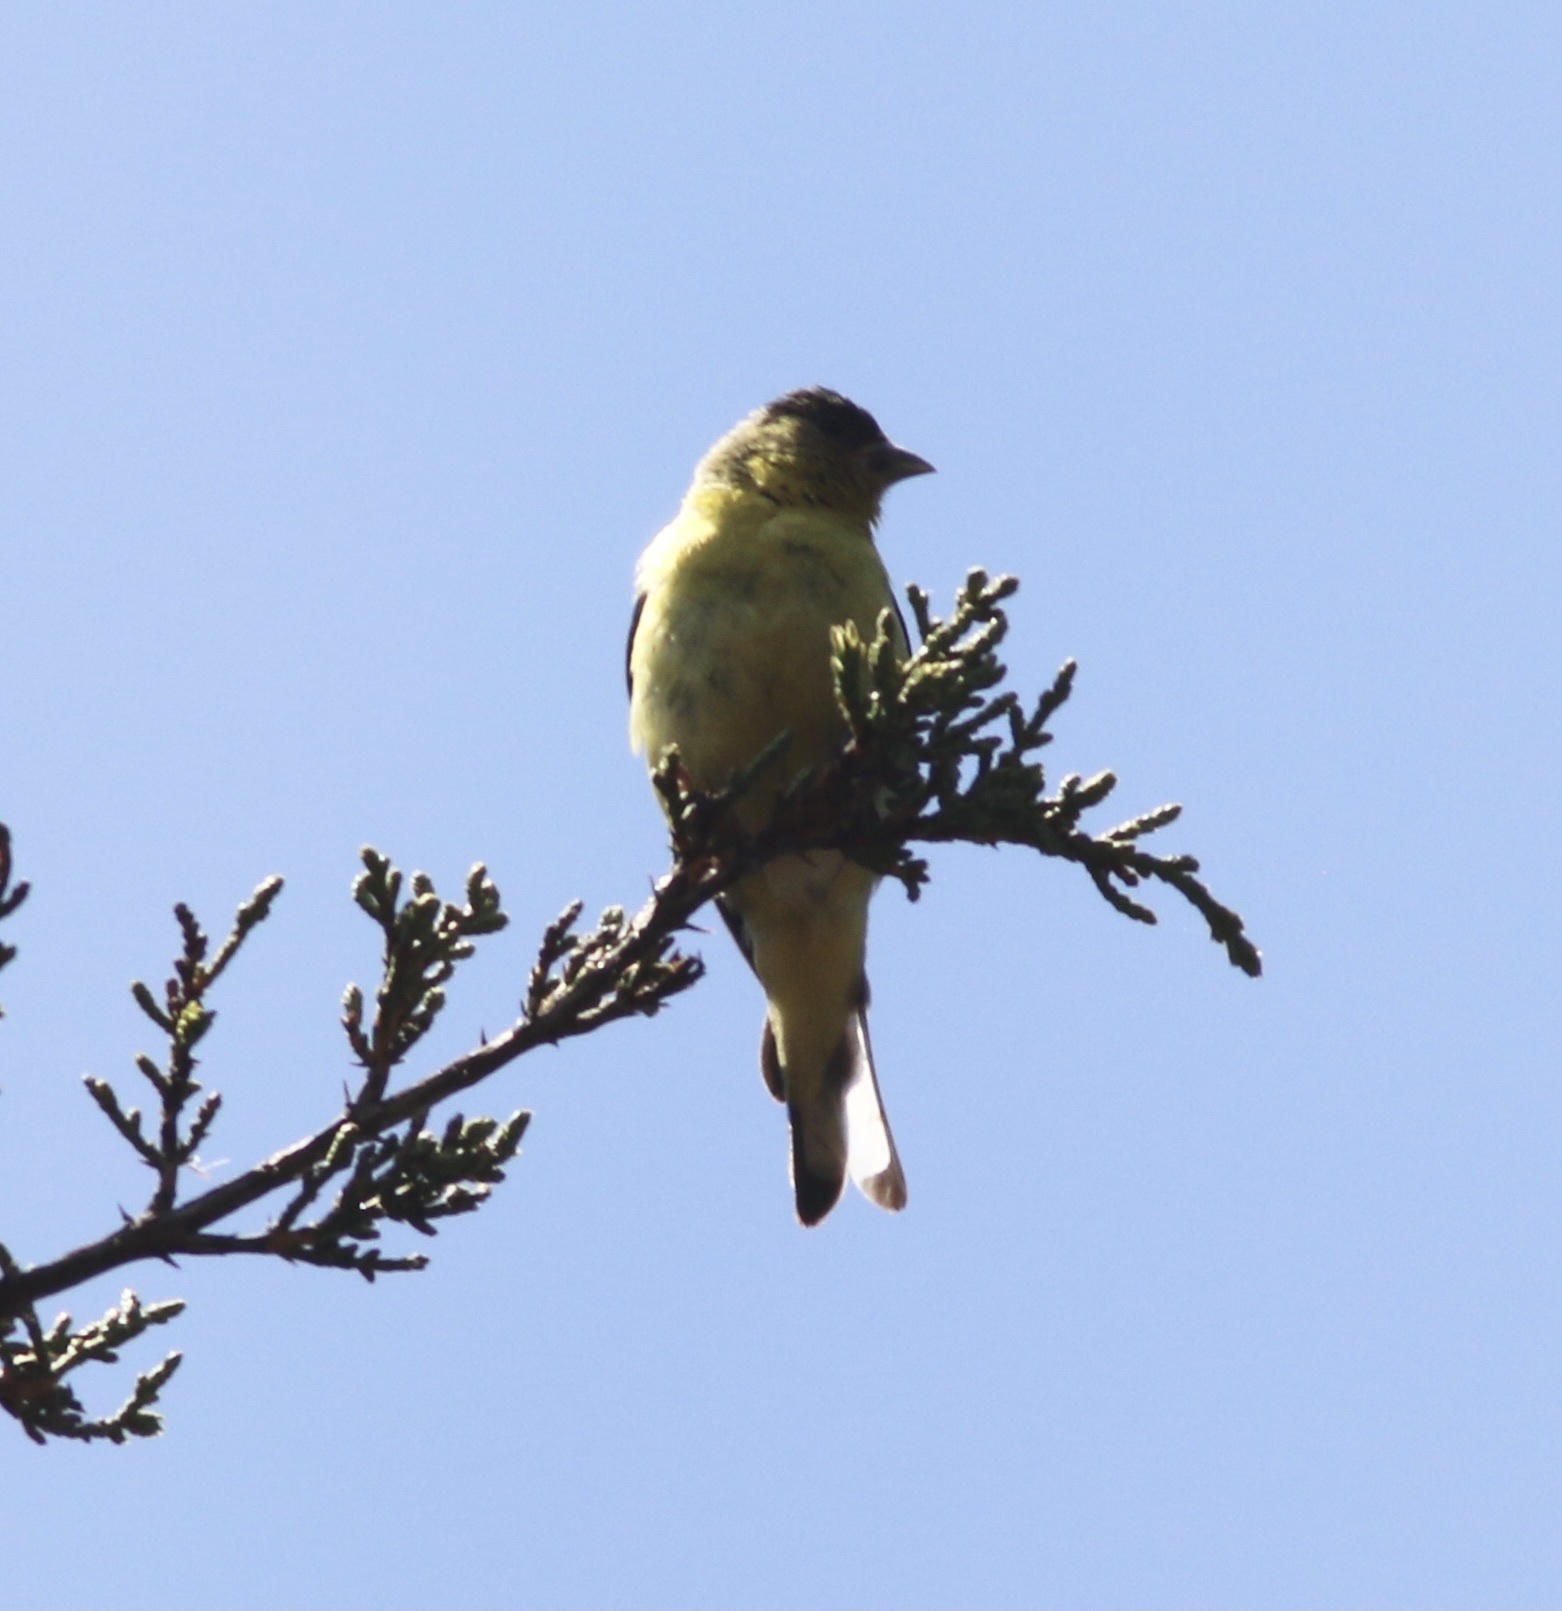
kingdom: Animalia
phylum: Chordata
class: Aves
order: Passeriformes
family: Fringillidae
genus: Spinus
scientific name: Spinus psaltria
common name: Lesser goldfinch
